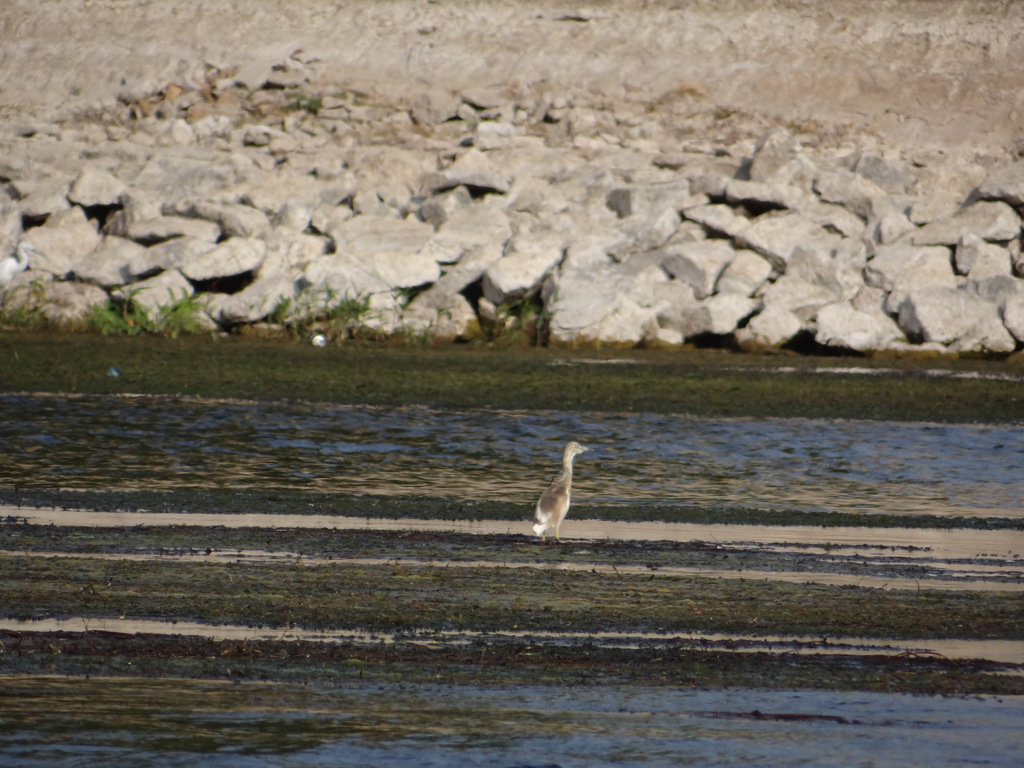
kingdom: Animalia
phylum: Chordata
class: Aves
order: Pelecaniformes
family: Ardeidae
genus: Ardeola
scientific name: Ardeola ralloides
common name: Squacco heron
